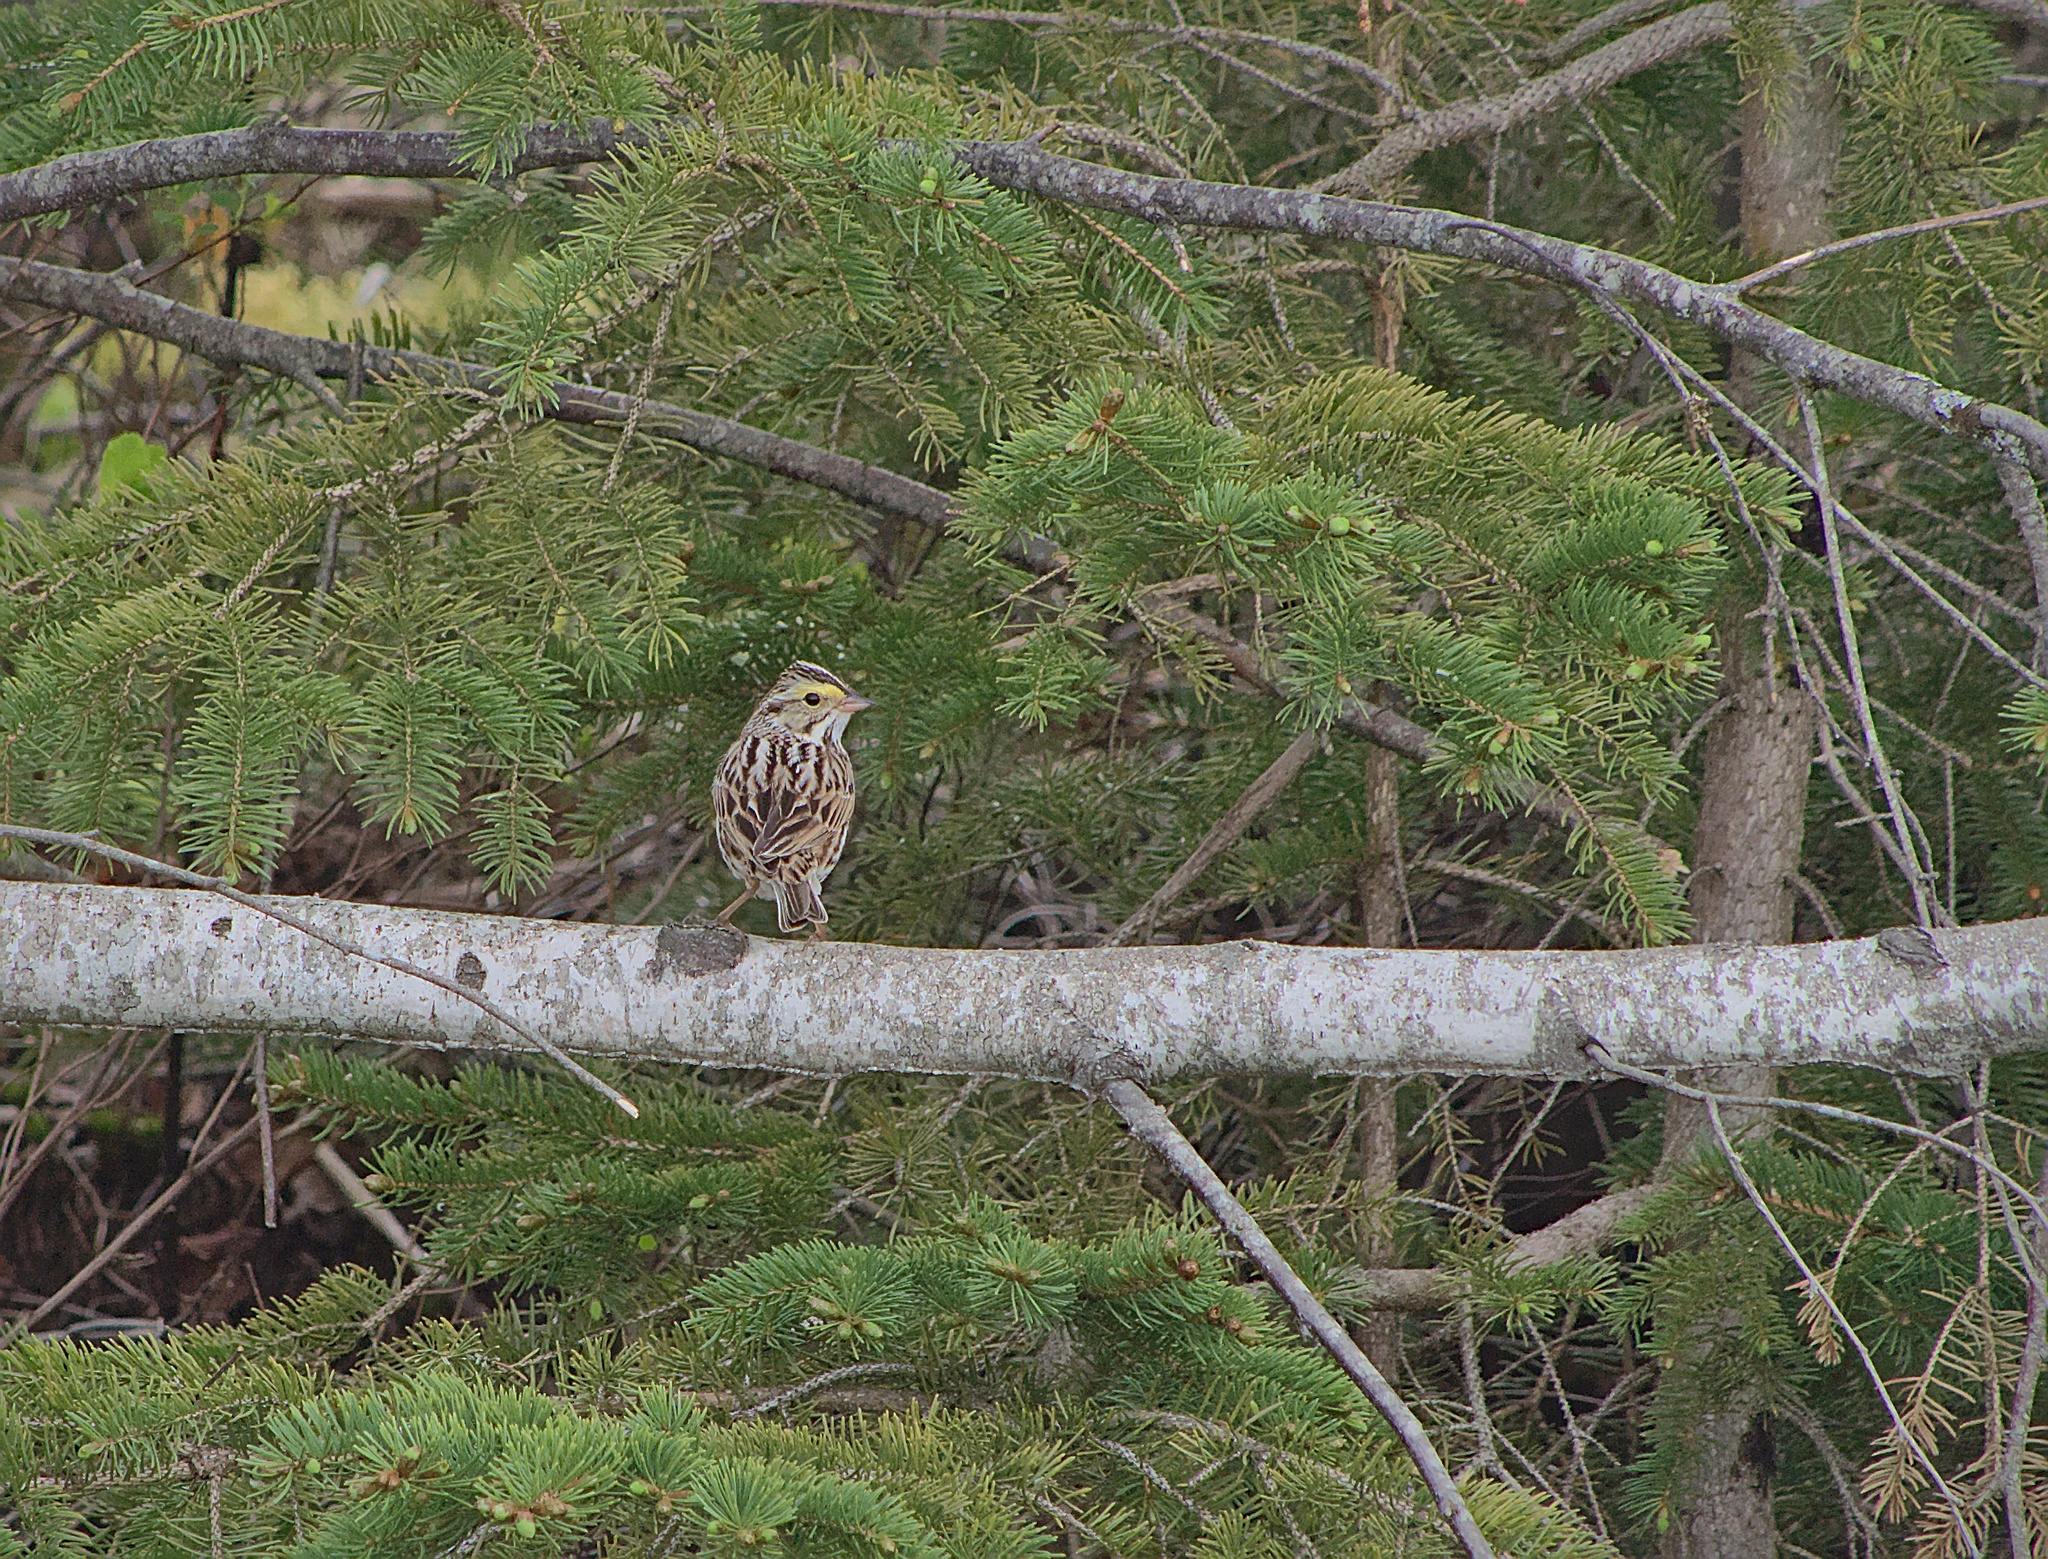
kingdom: Animalia
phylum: Chordata
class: Aves
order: Passeriformes
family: Passerellidae
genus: Passerculus
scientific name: Passerculus sandwichensis
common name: Savannah sparrow
